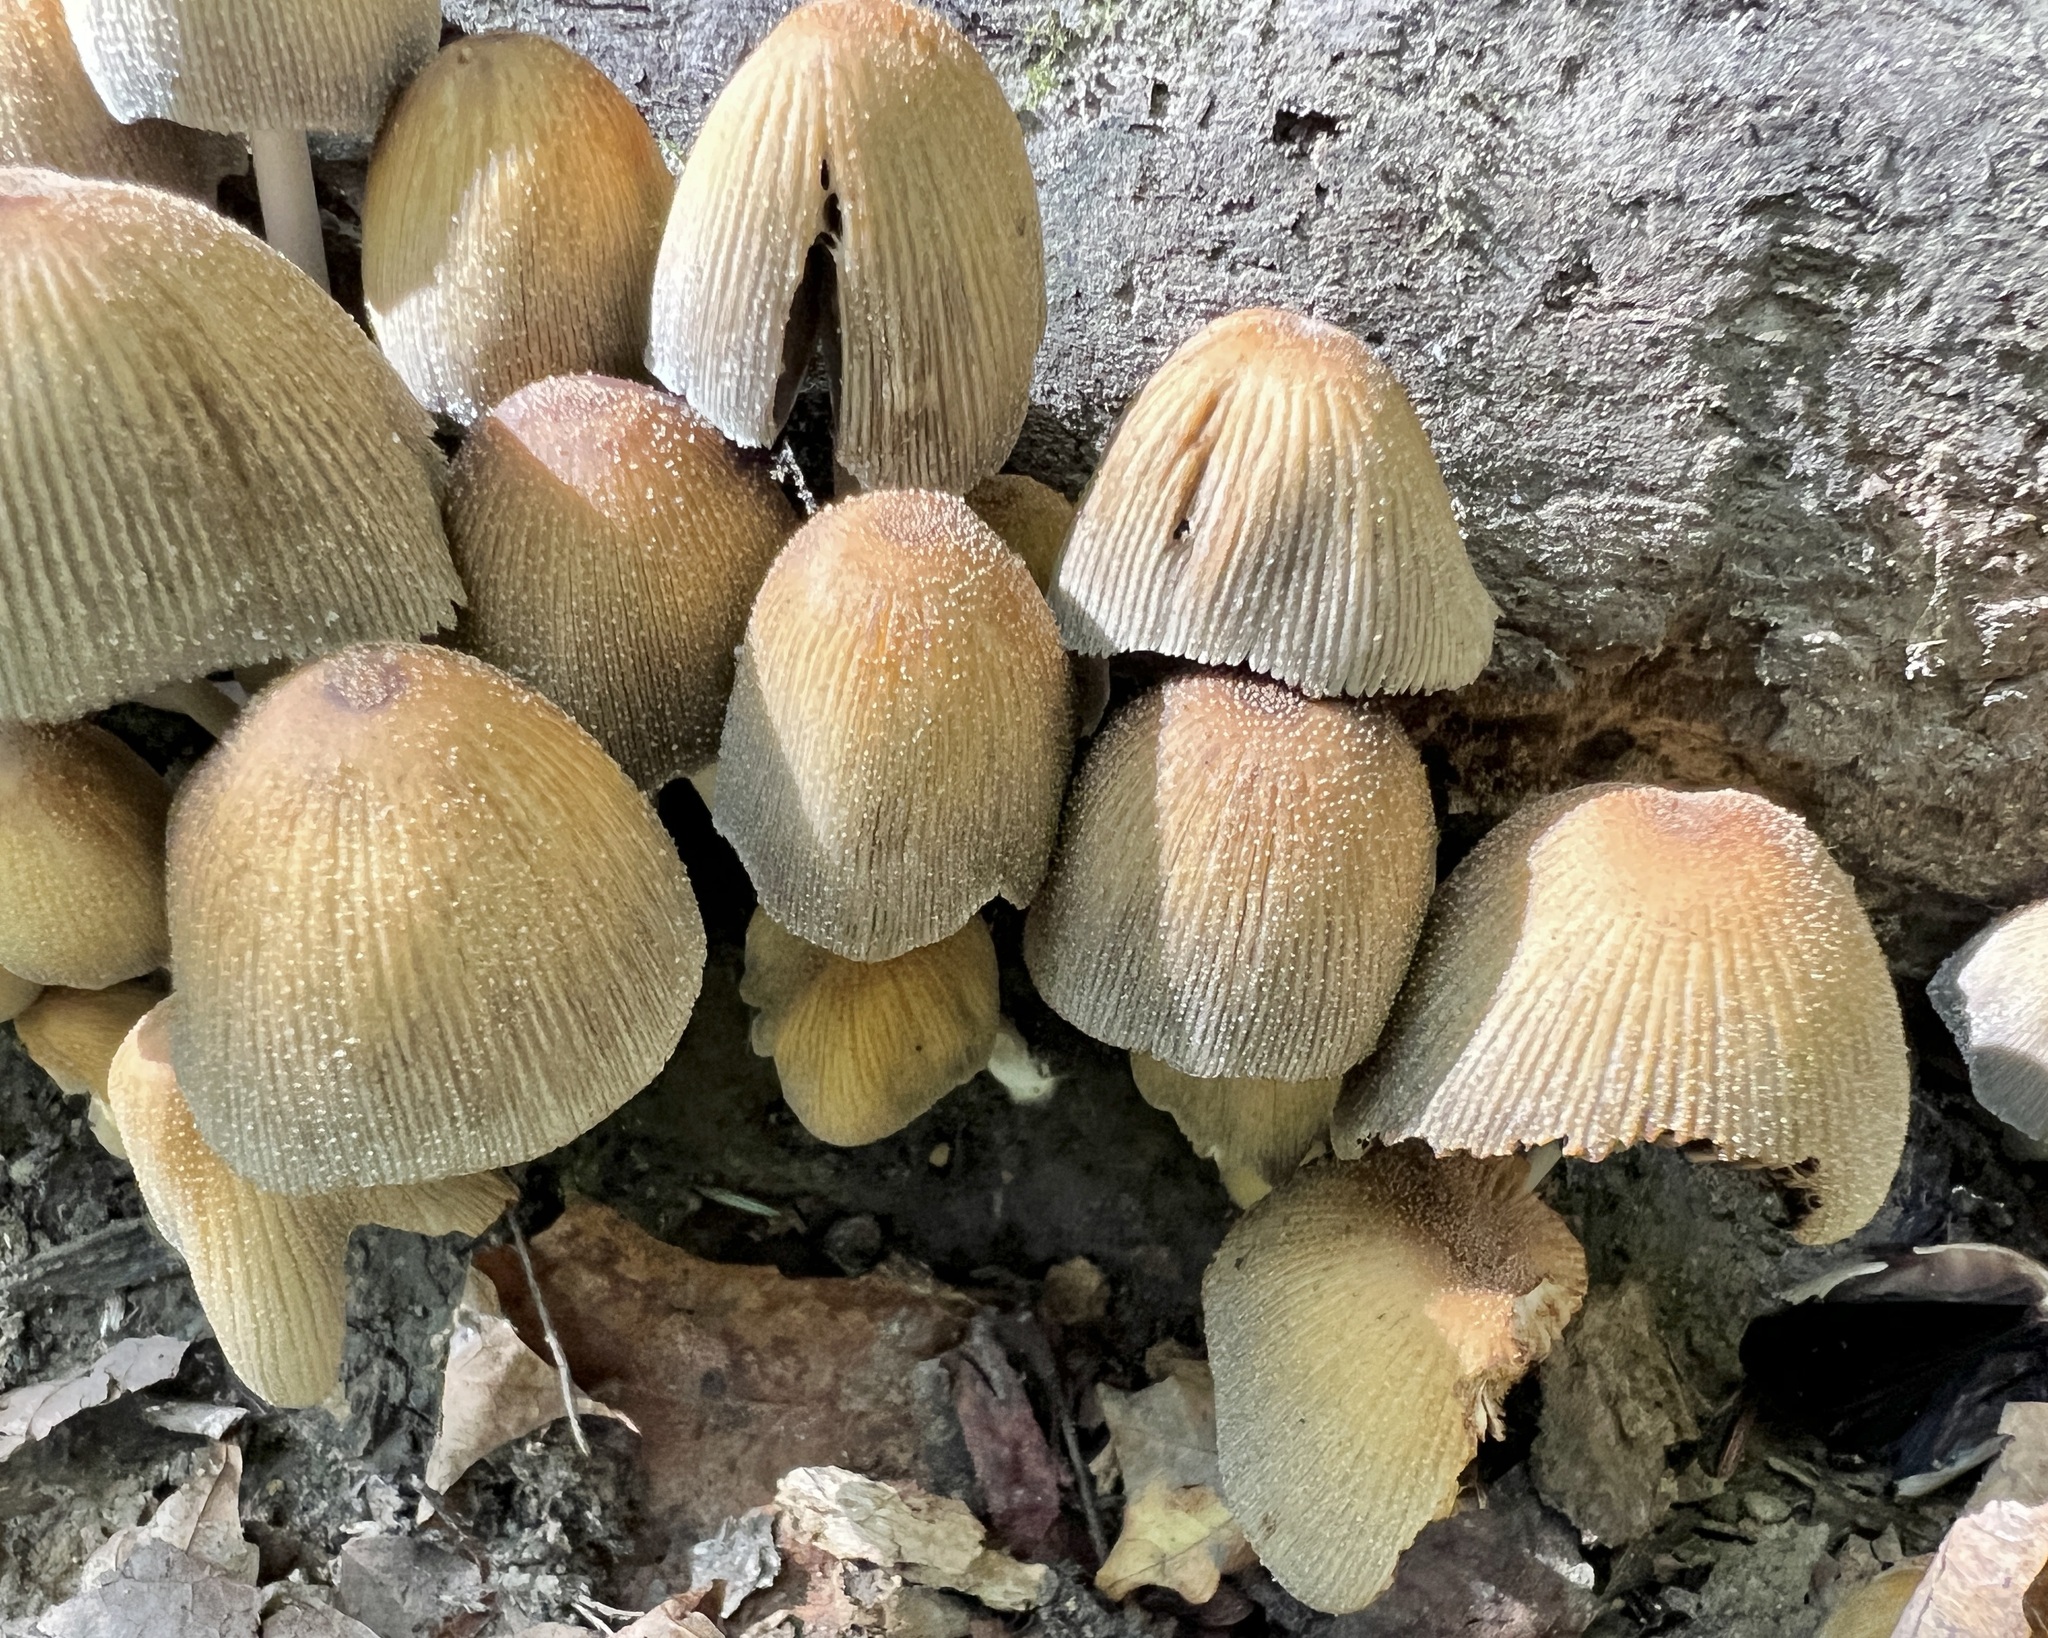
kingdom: Fungi
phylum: Basidiomycota
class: Agaricomycetes
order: Agaricales
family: Psathyrellaceae
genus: Coprinellus
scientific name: Coprinellus micaceus
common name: Glistening ink-cap
